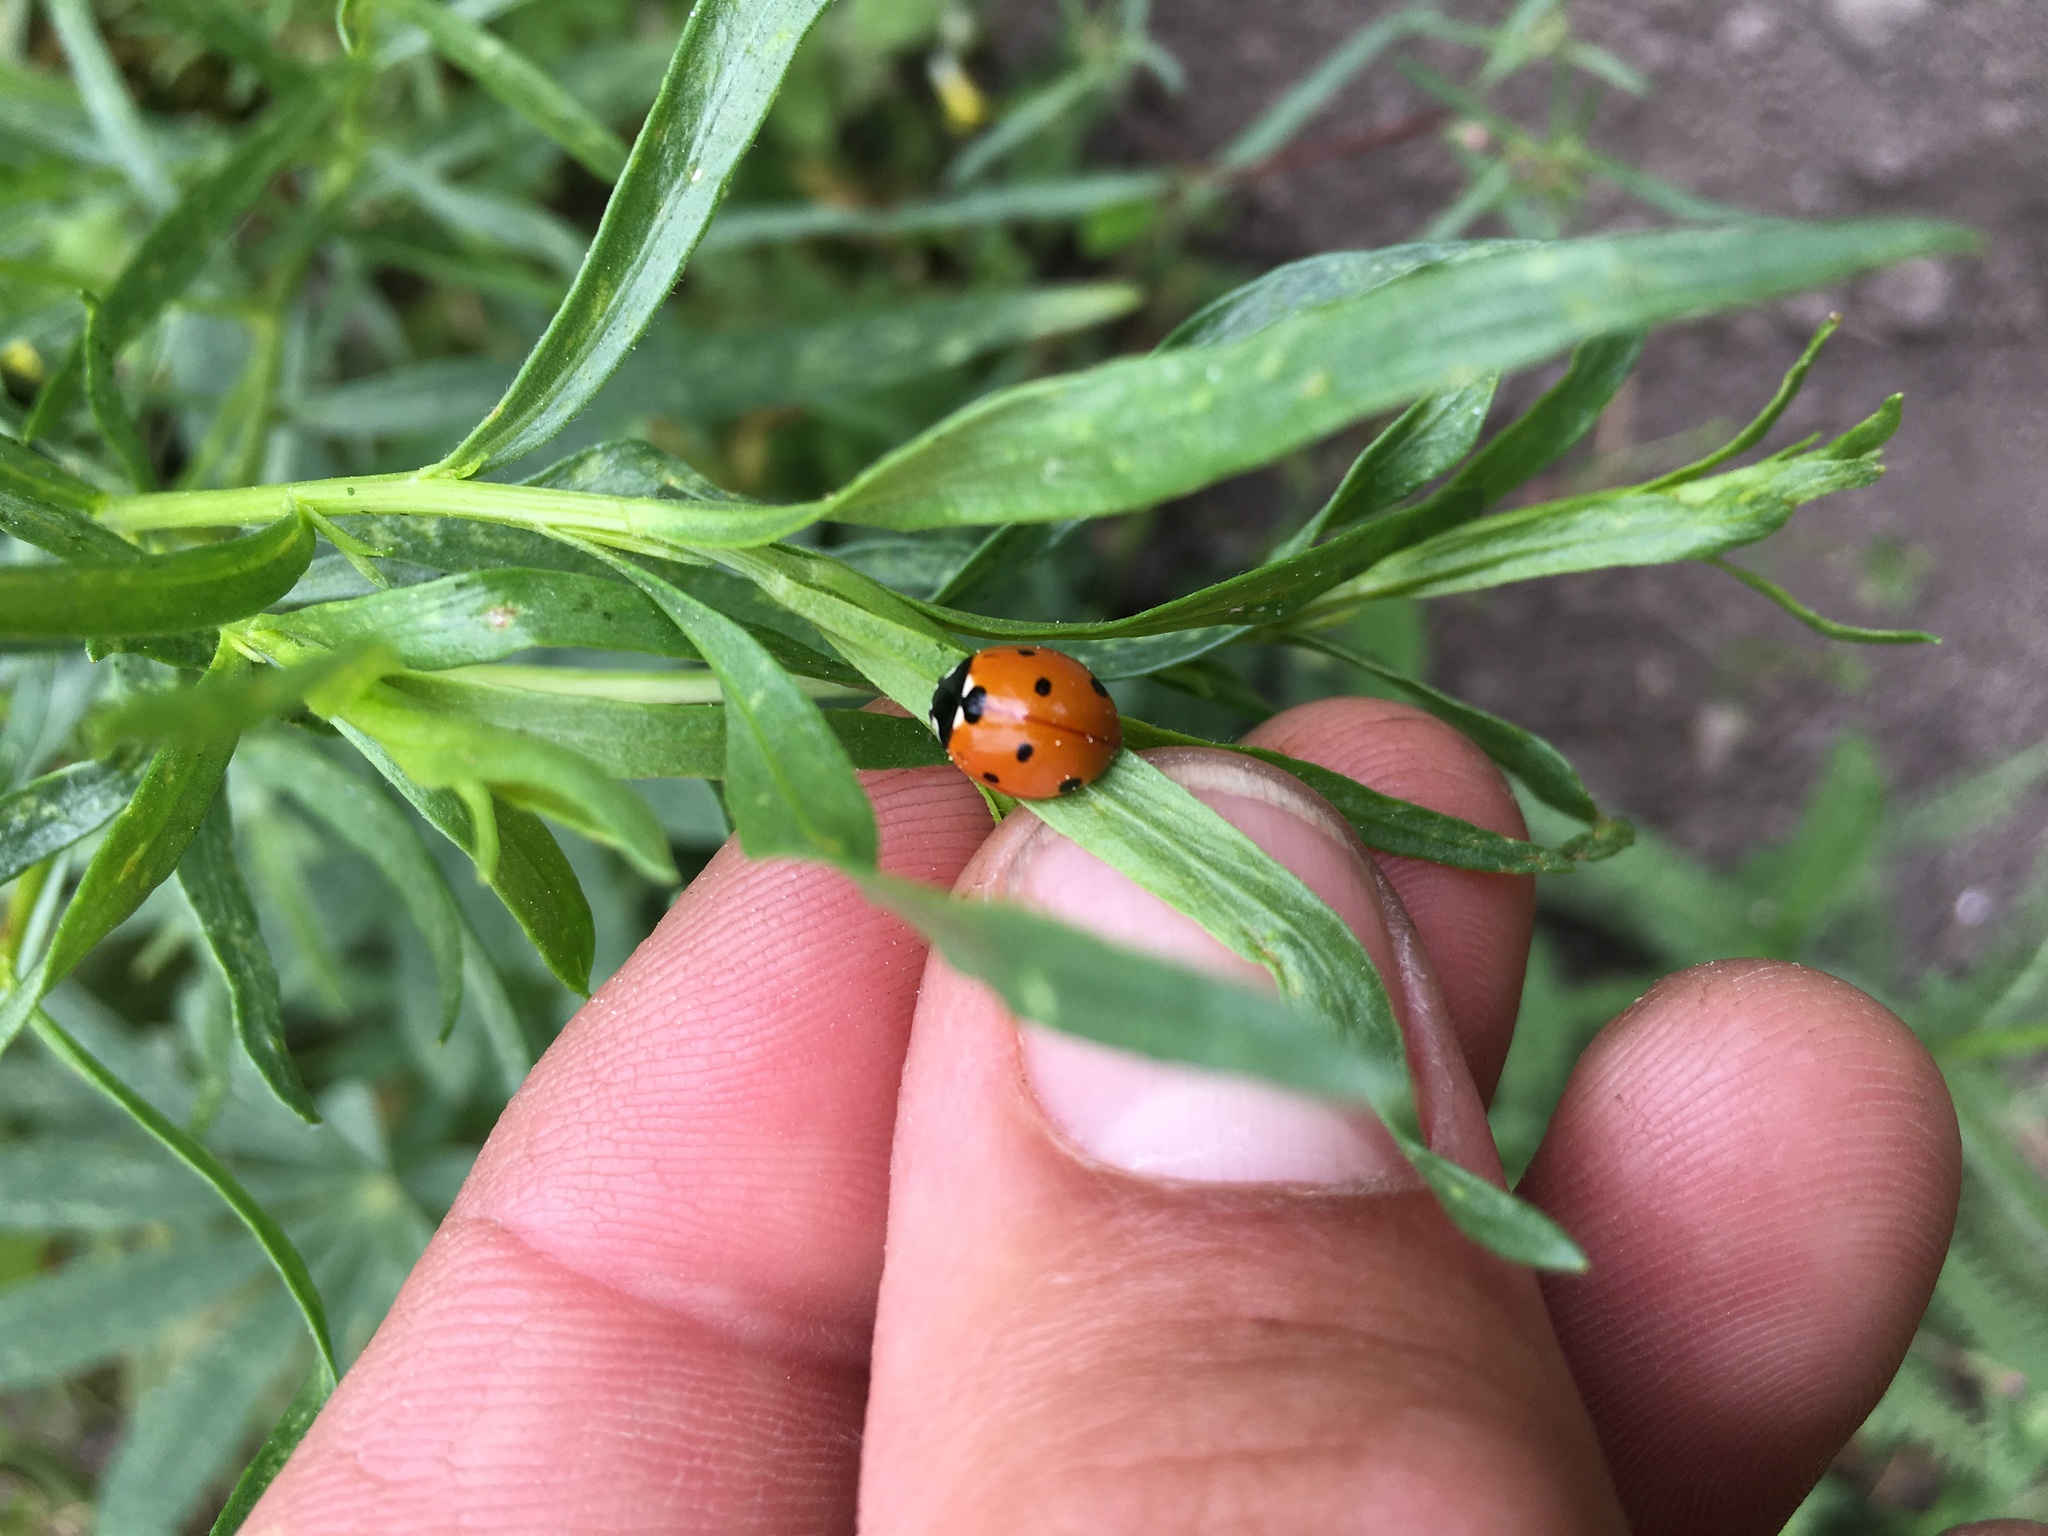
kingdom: Animalia
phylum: Arthropoda
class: Insecta
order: Coleoptera
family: Coccinellidae
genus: Coccinella
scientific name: Coccinella septempunctata
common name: Sevenspotted lady beetle
